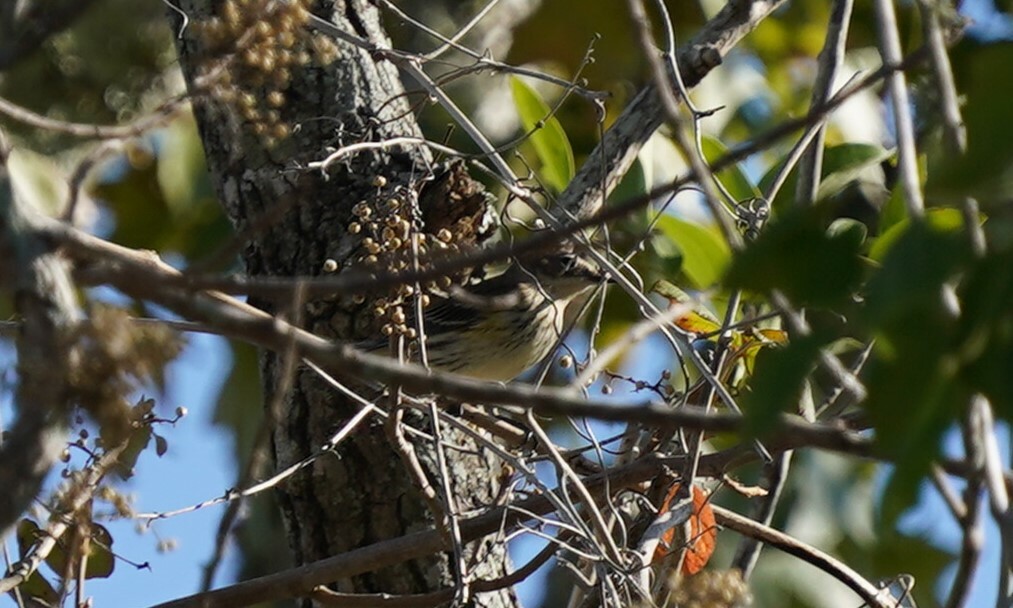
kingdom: Animalia
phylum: Chordata
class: Aves
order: Passeriformes
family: Parulidae
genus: Setophaga
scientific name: Setophaga coronata
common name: Myrtle warbler
